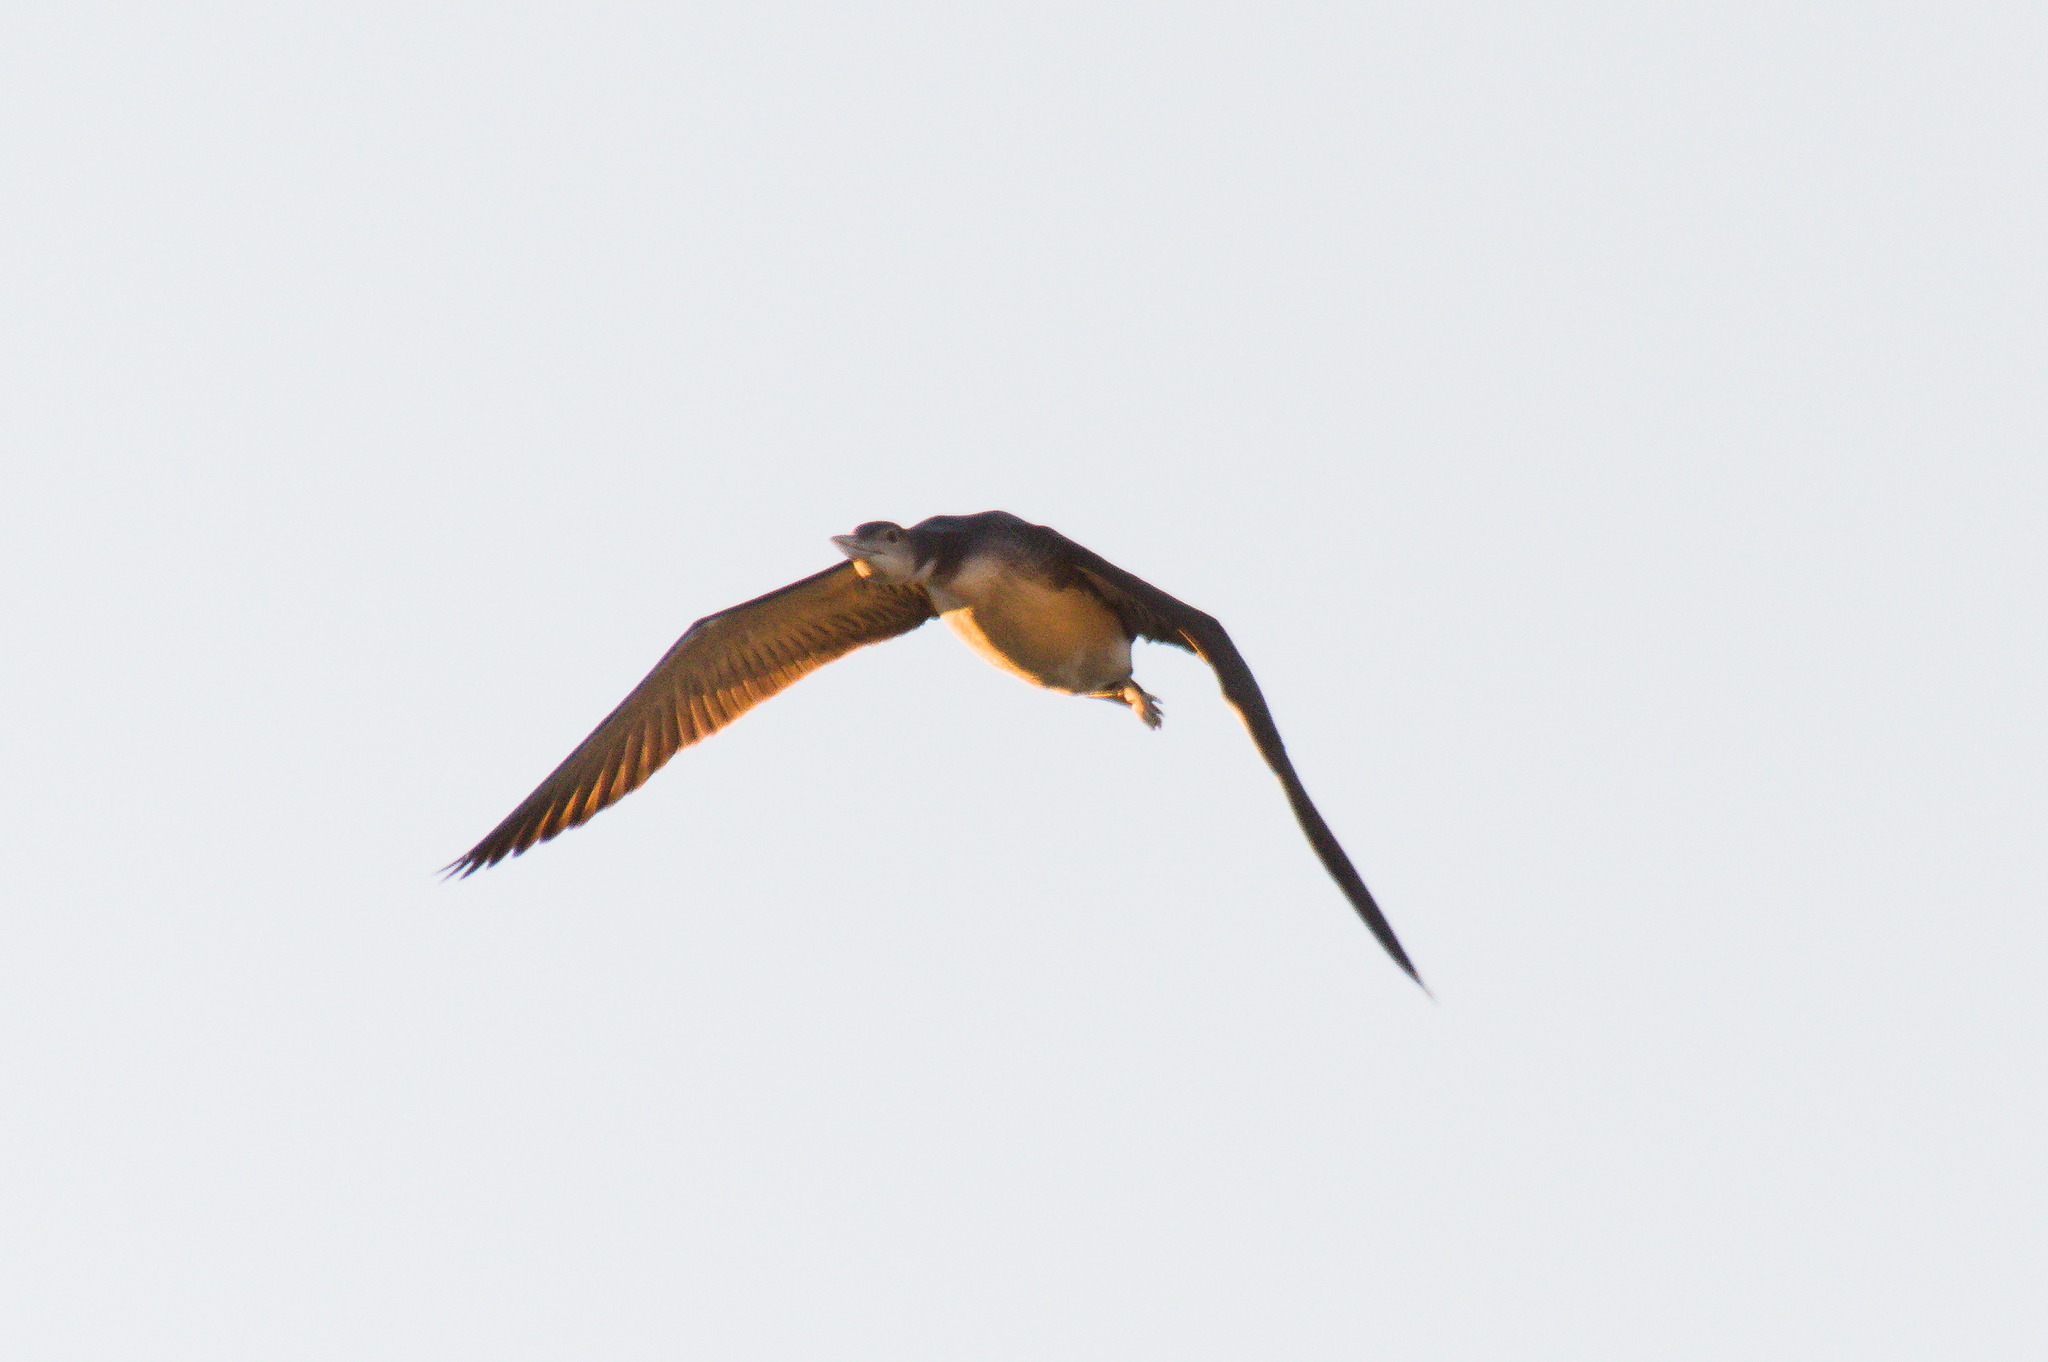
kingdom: Animalia
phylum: Chordata
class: Aves
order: Gaviiformes
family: Gaviidae
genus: Gavia
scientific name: Gavia immer
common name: Common loon
